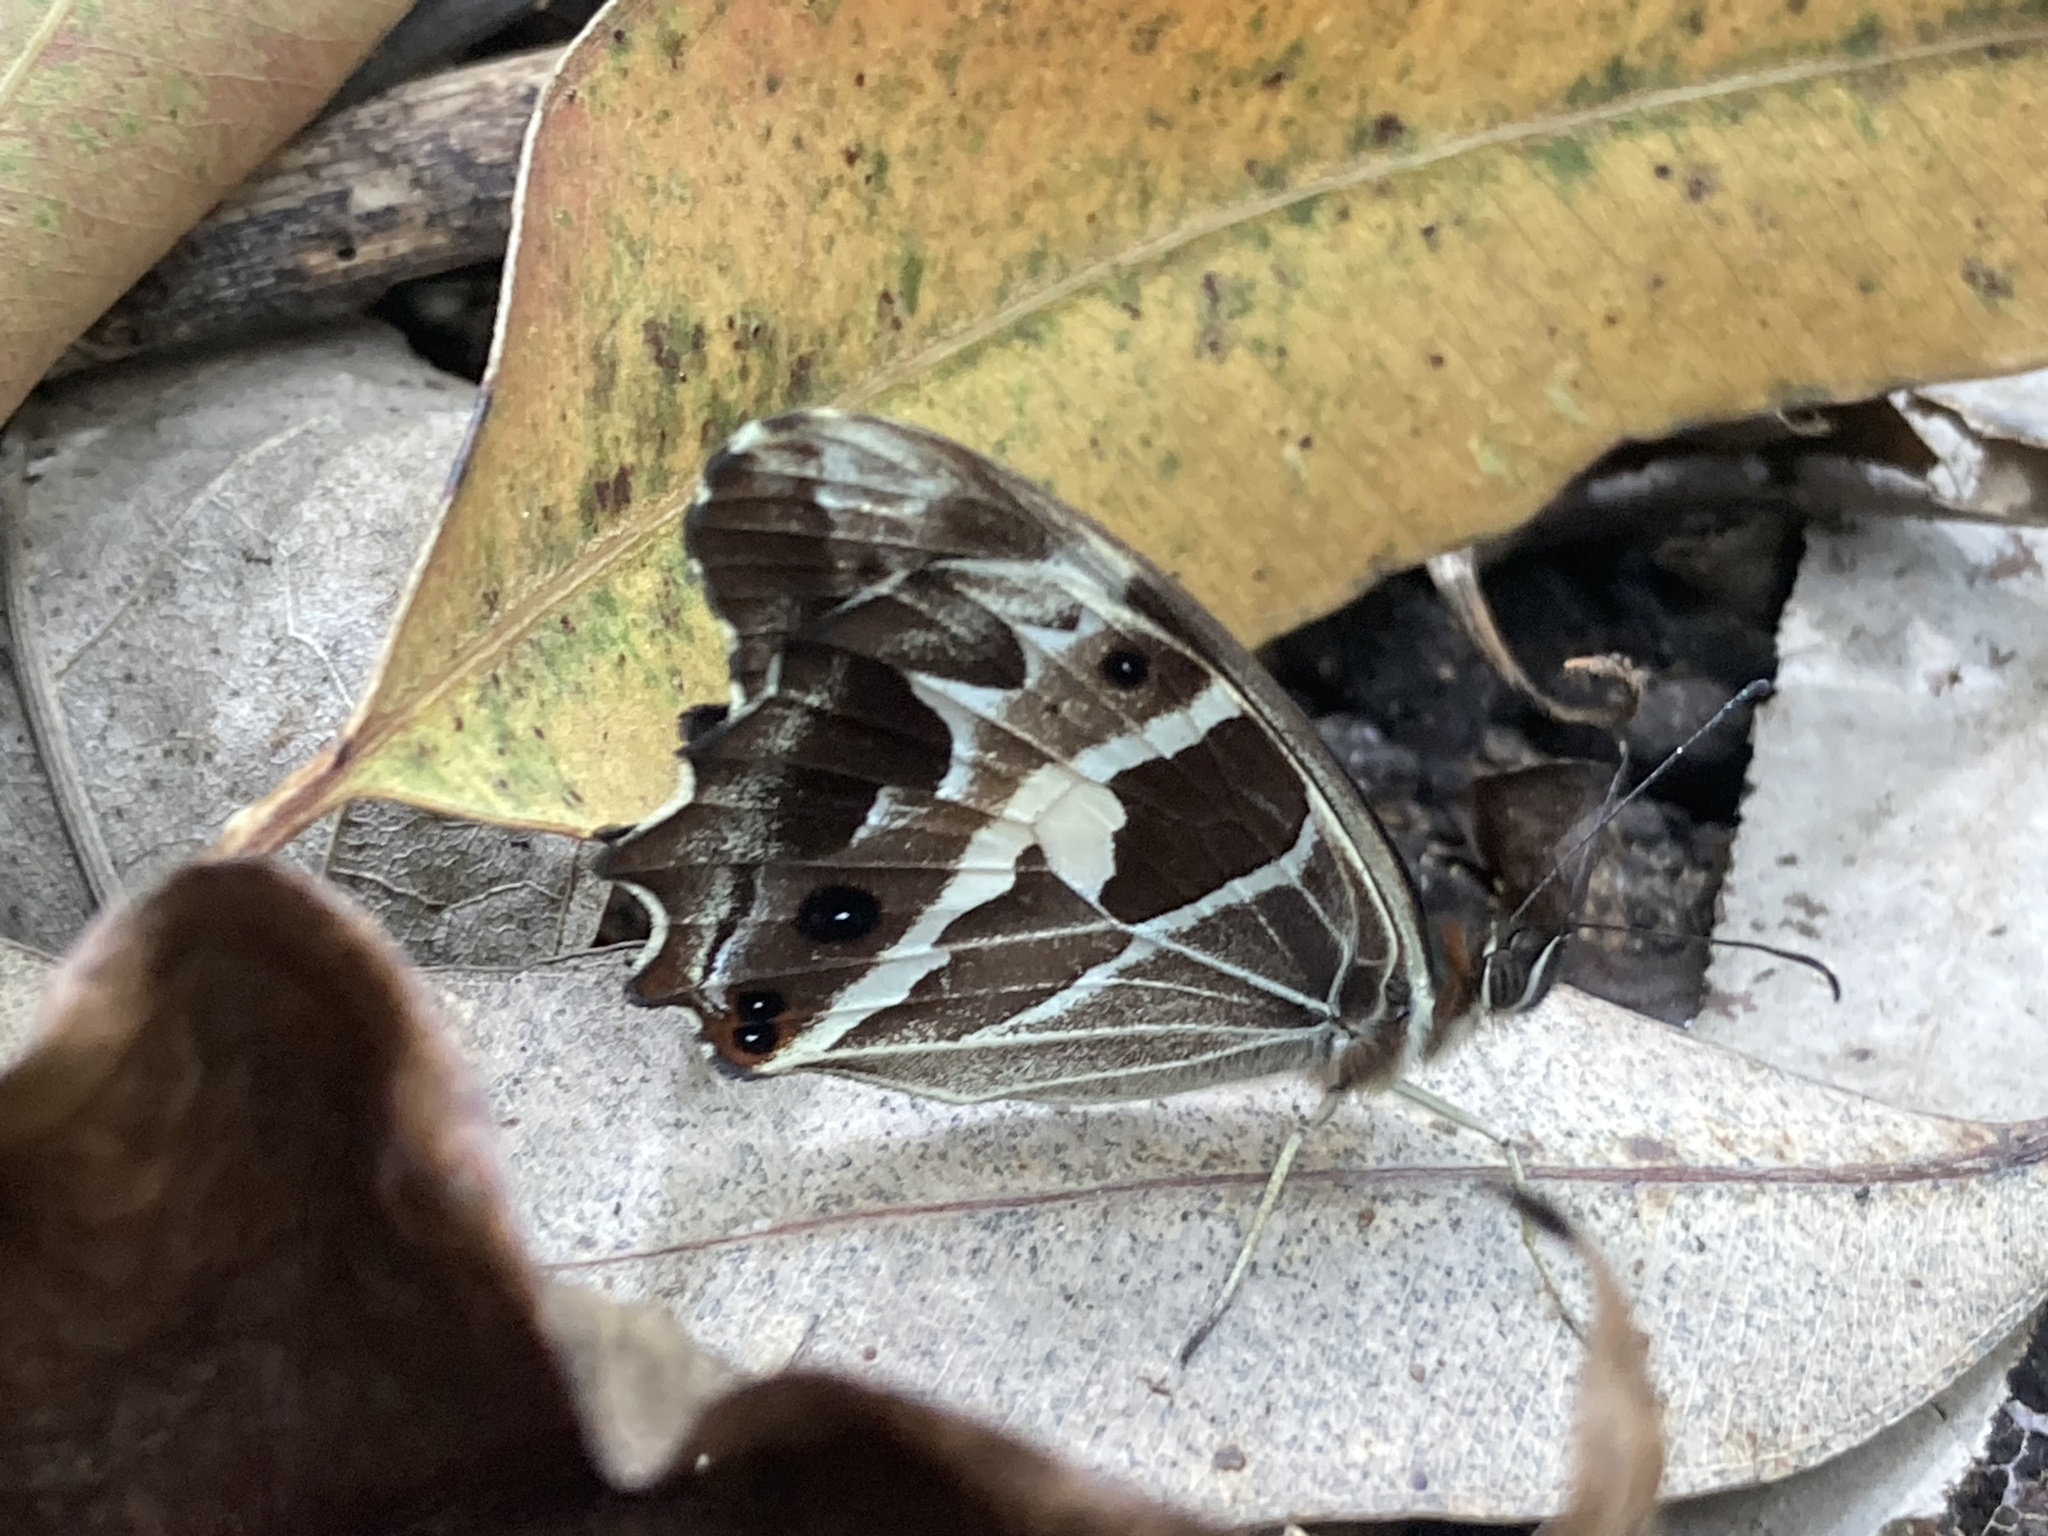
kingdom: Animalia
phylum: Arthropoda
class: Insecta
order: Lepidoptera
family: Nymphalidae
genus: Oxeoschistus
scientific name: Oxeoschistus tauropolis
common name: Starred oxeo
